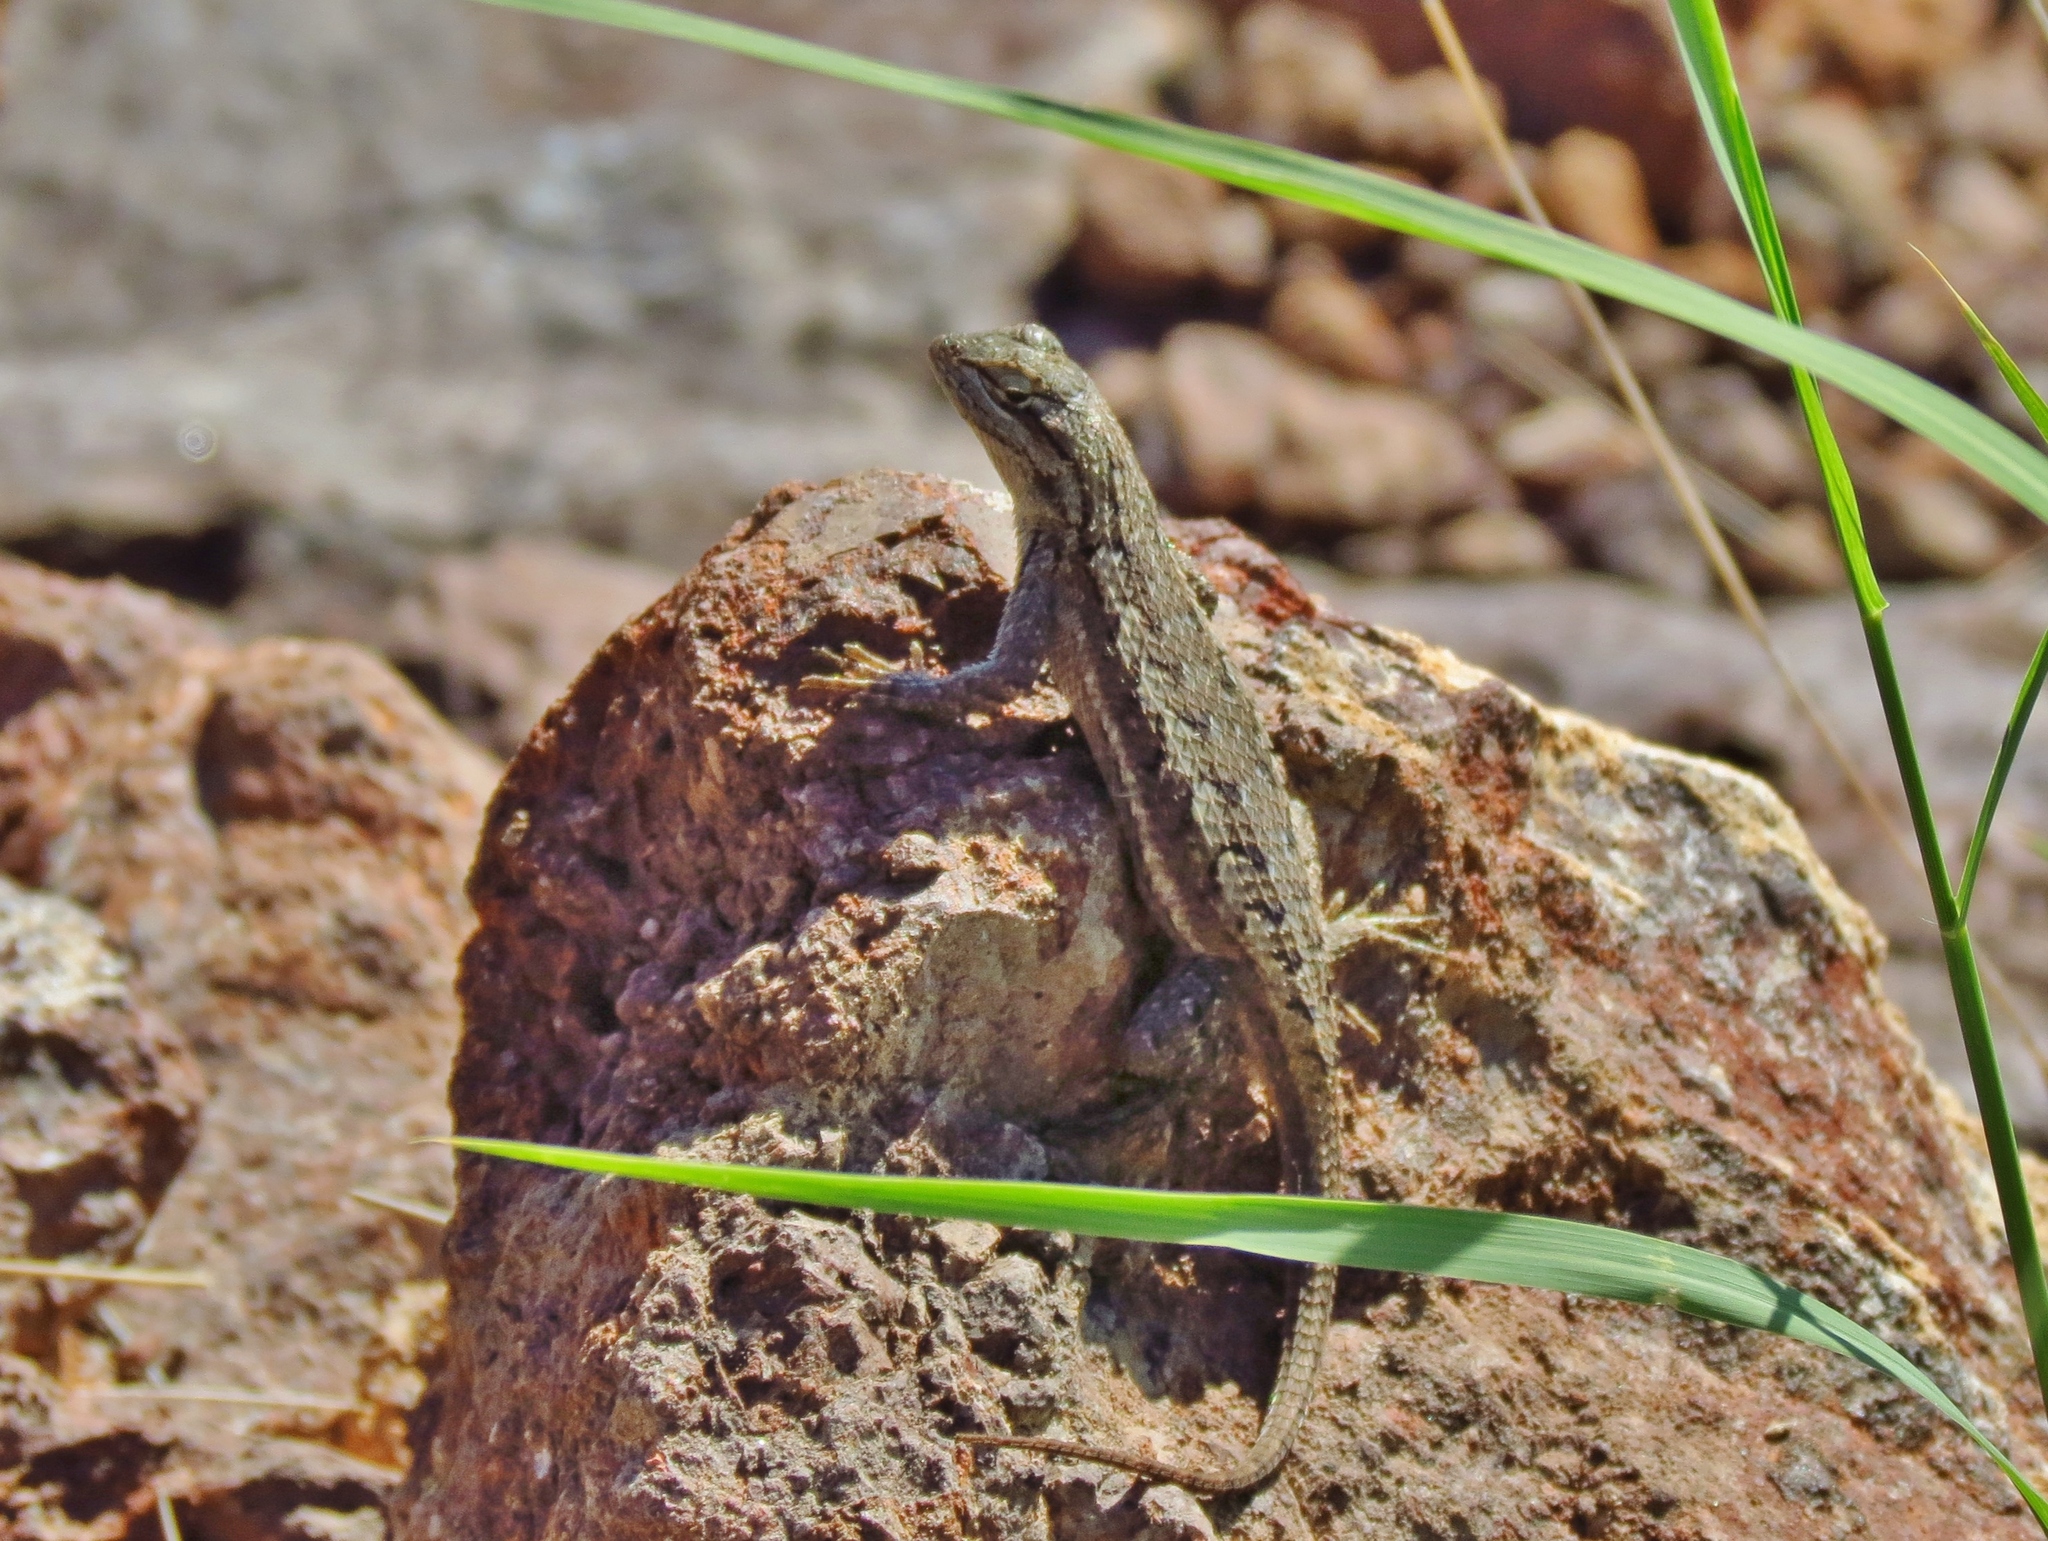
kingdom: Animalia
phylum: Chordata
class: Squamata
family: Phrynosomatidae
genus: Sceloporus
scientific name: Sceloporus cowlesi
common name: White sands prairie lizard
